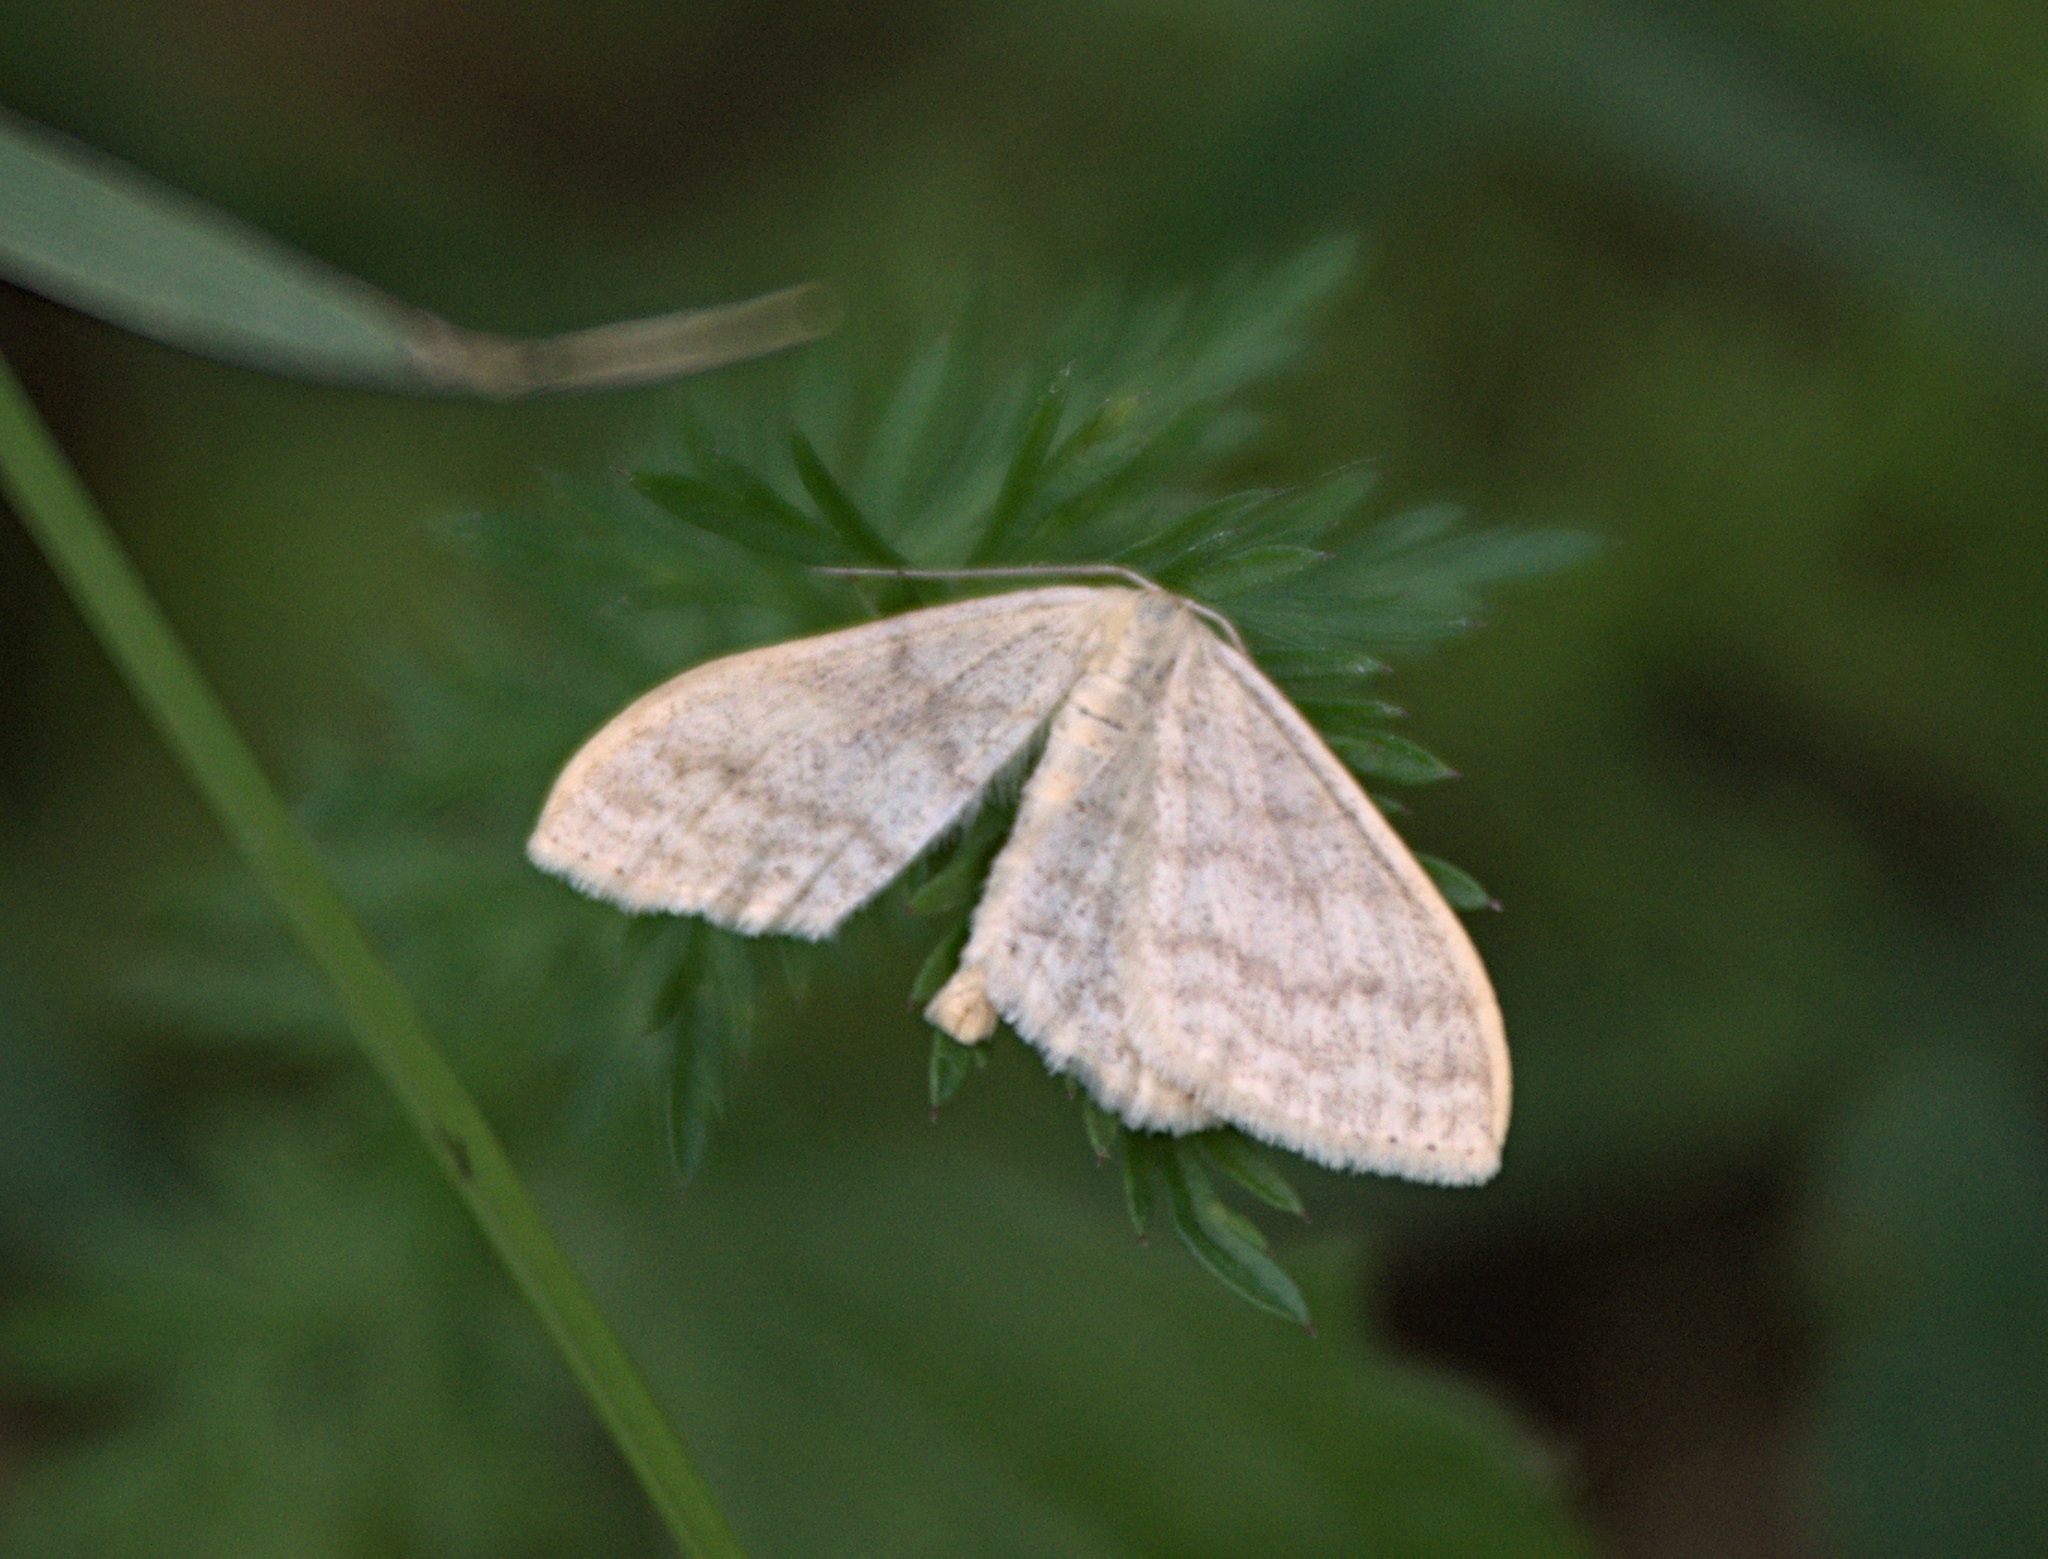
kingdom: Animalia
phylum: Arthropoda
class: Insecta
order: Lepidoptera
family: Geometridae
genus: Scopula
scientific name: Scopula floslactata
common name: Cream wave
